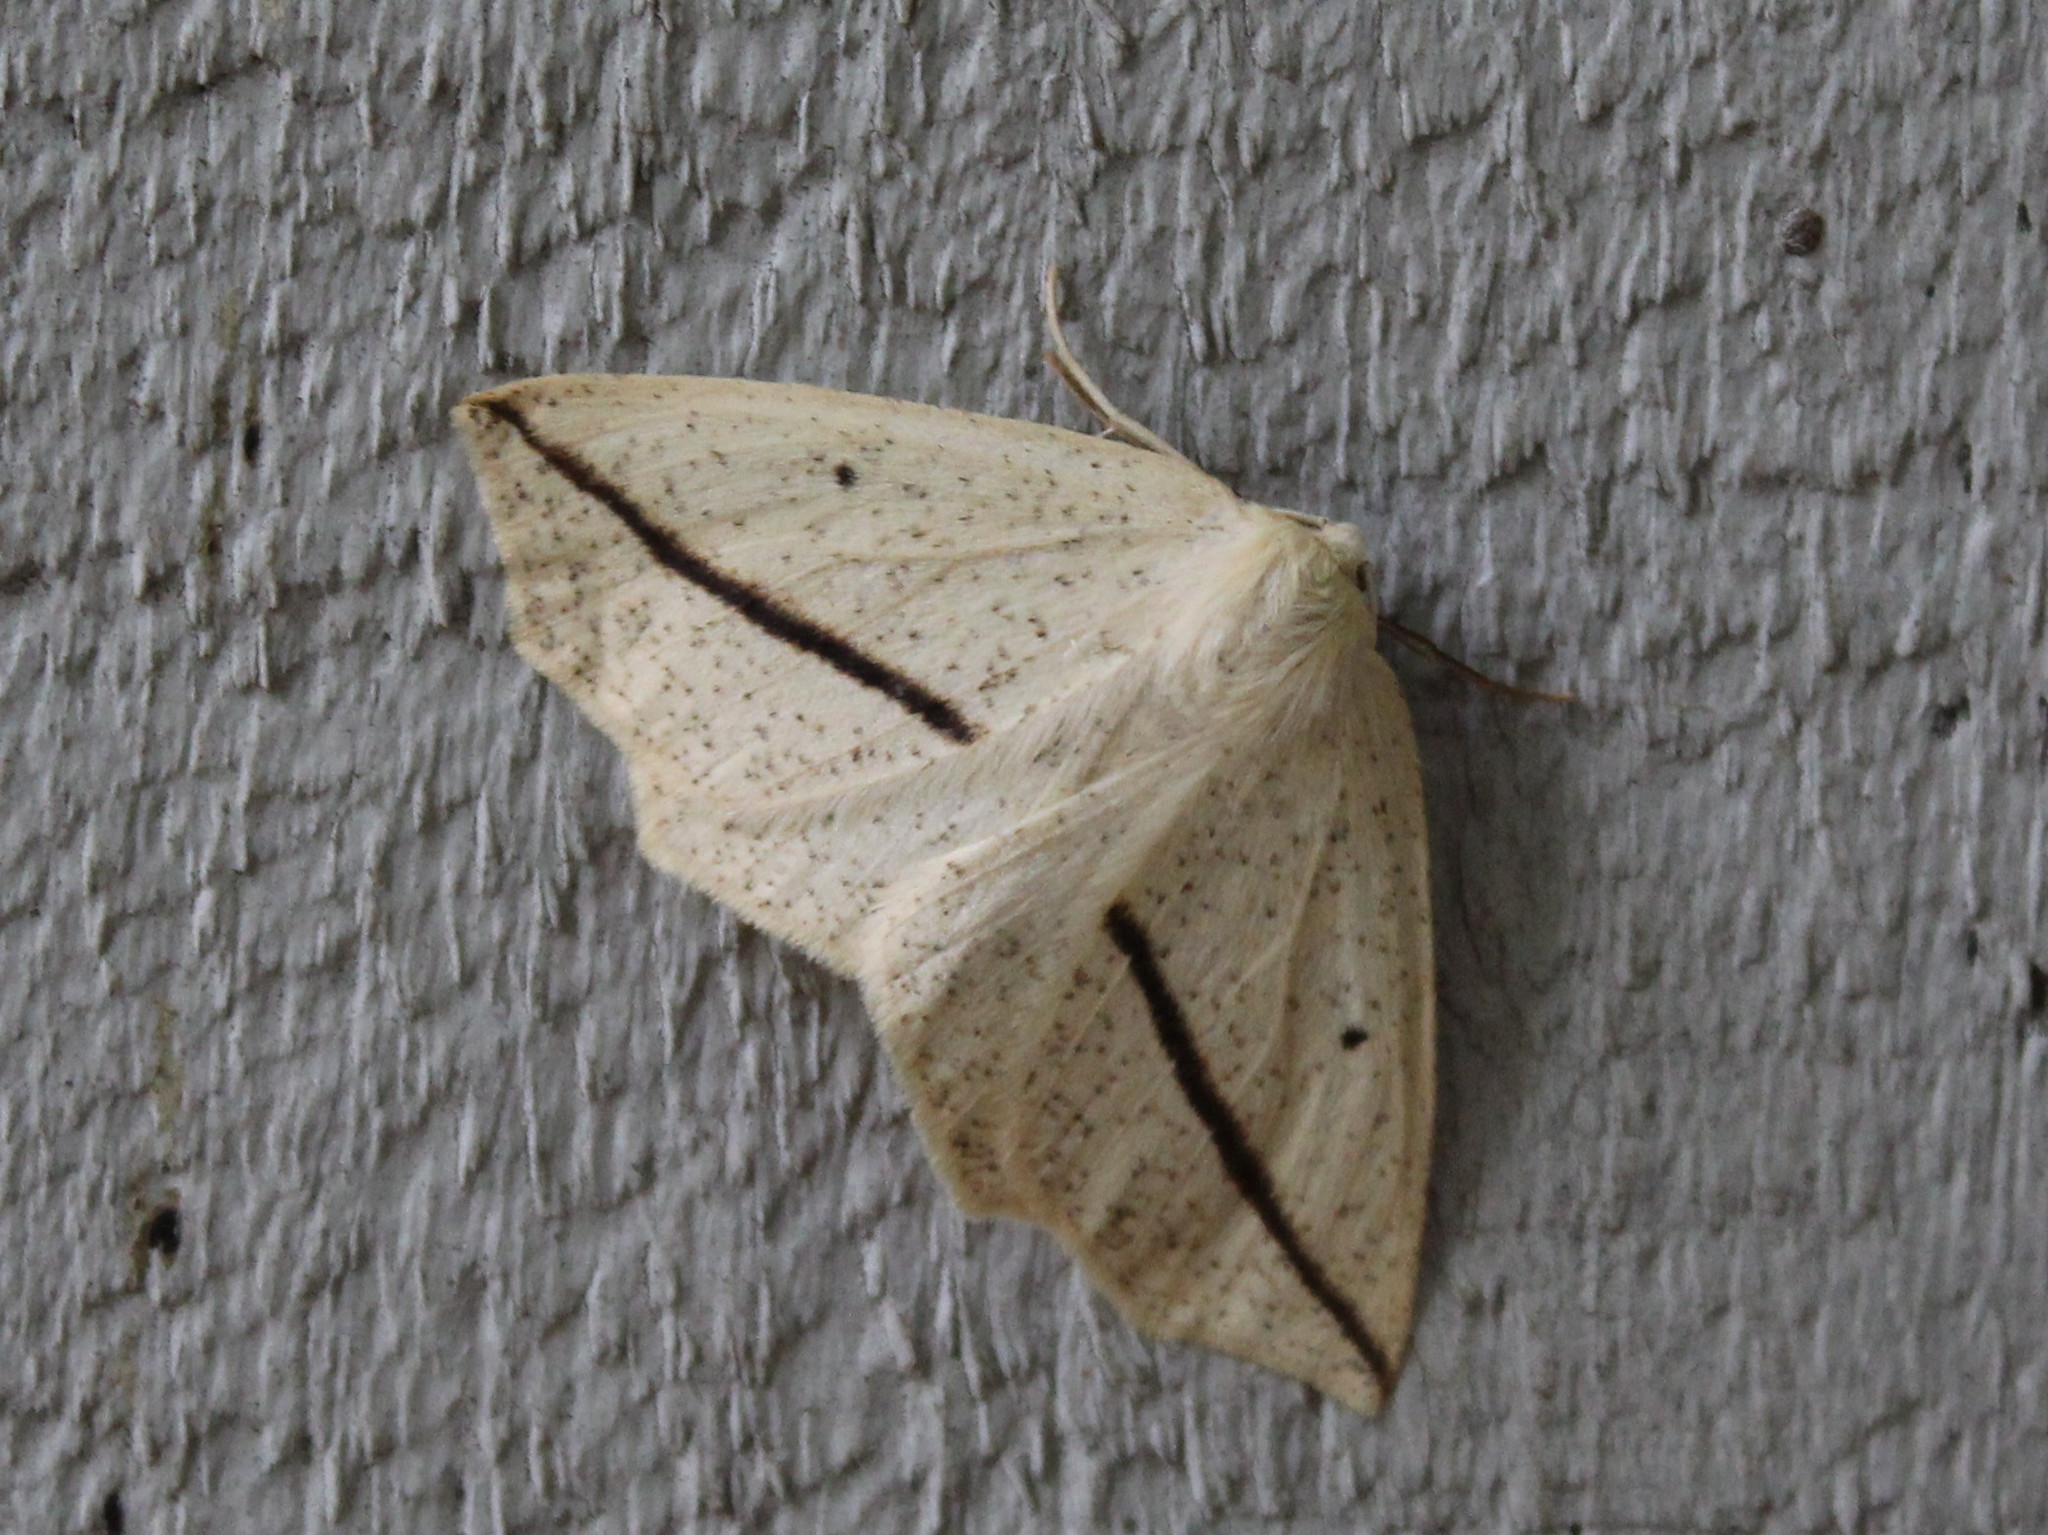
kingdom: Animalia
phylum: Arthropoda
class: Insecta
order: Lepidoptera
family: Geometridae
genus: Tetracis
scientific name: Tetracis crocallata
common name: Yellow slant-line
